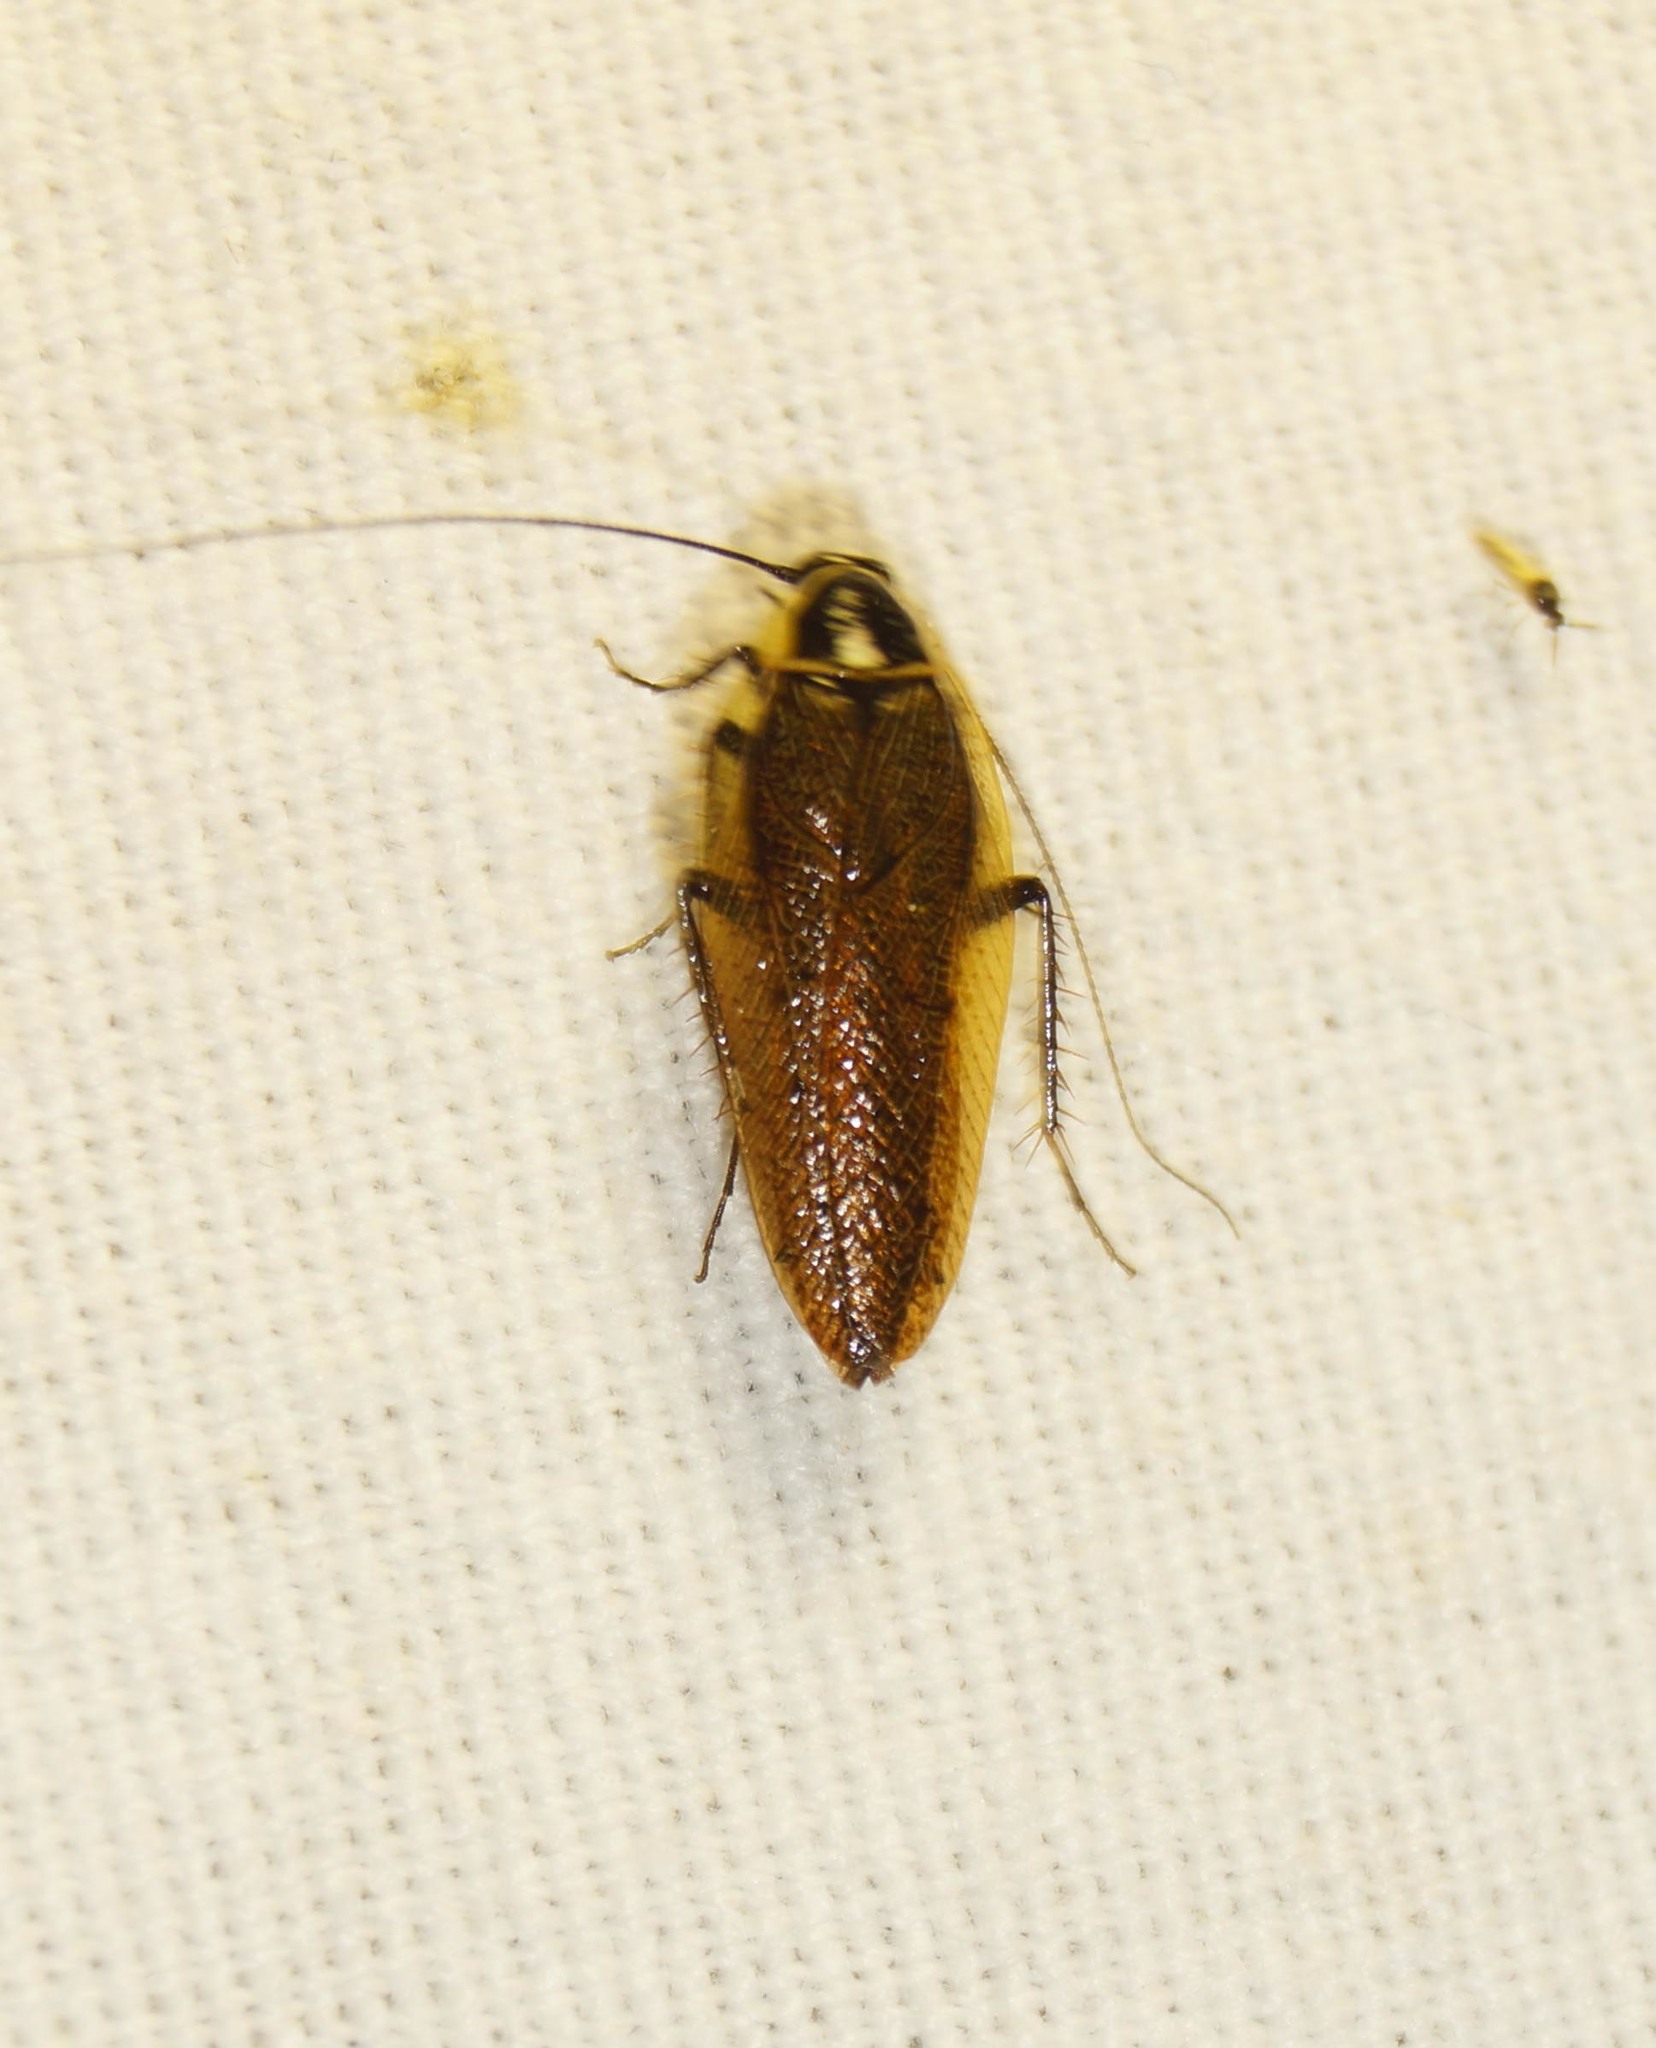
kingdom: Animalia
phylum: Arthropoda
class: Insecta
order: Blattodea
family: Ectobiidae
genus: Ectobius
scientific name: Ectobius sylvestris
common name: Forest cockroach
